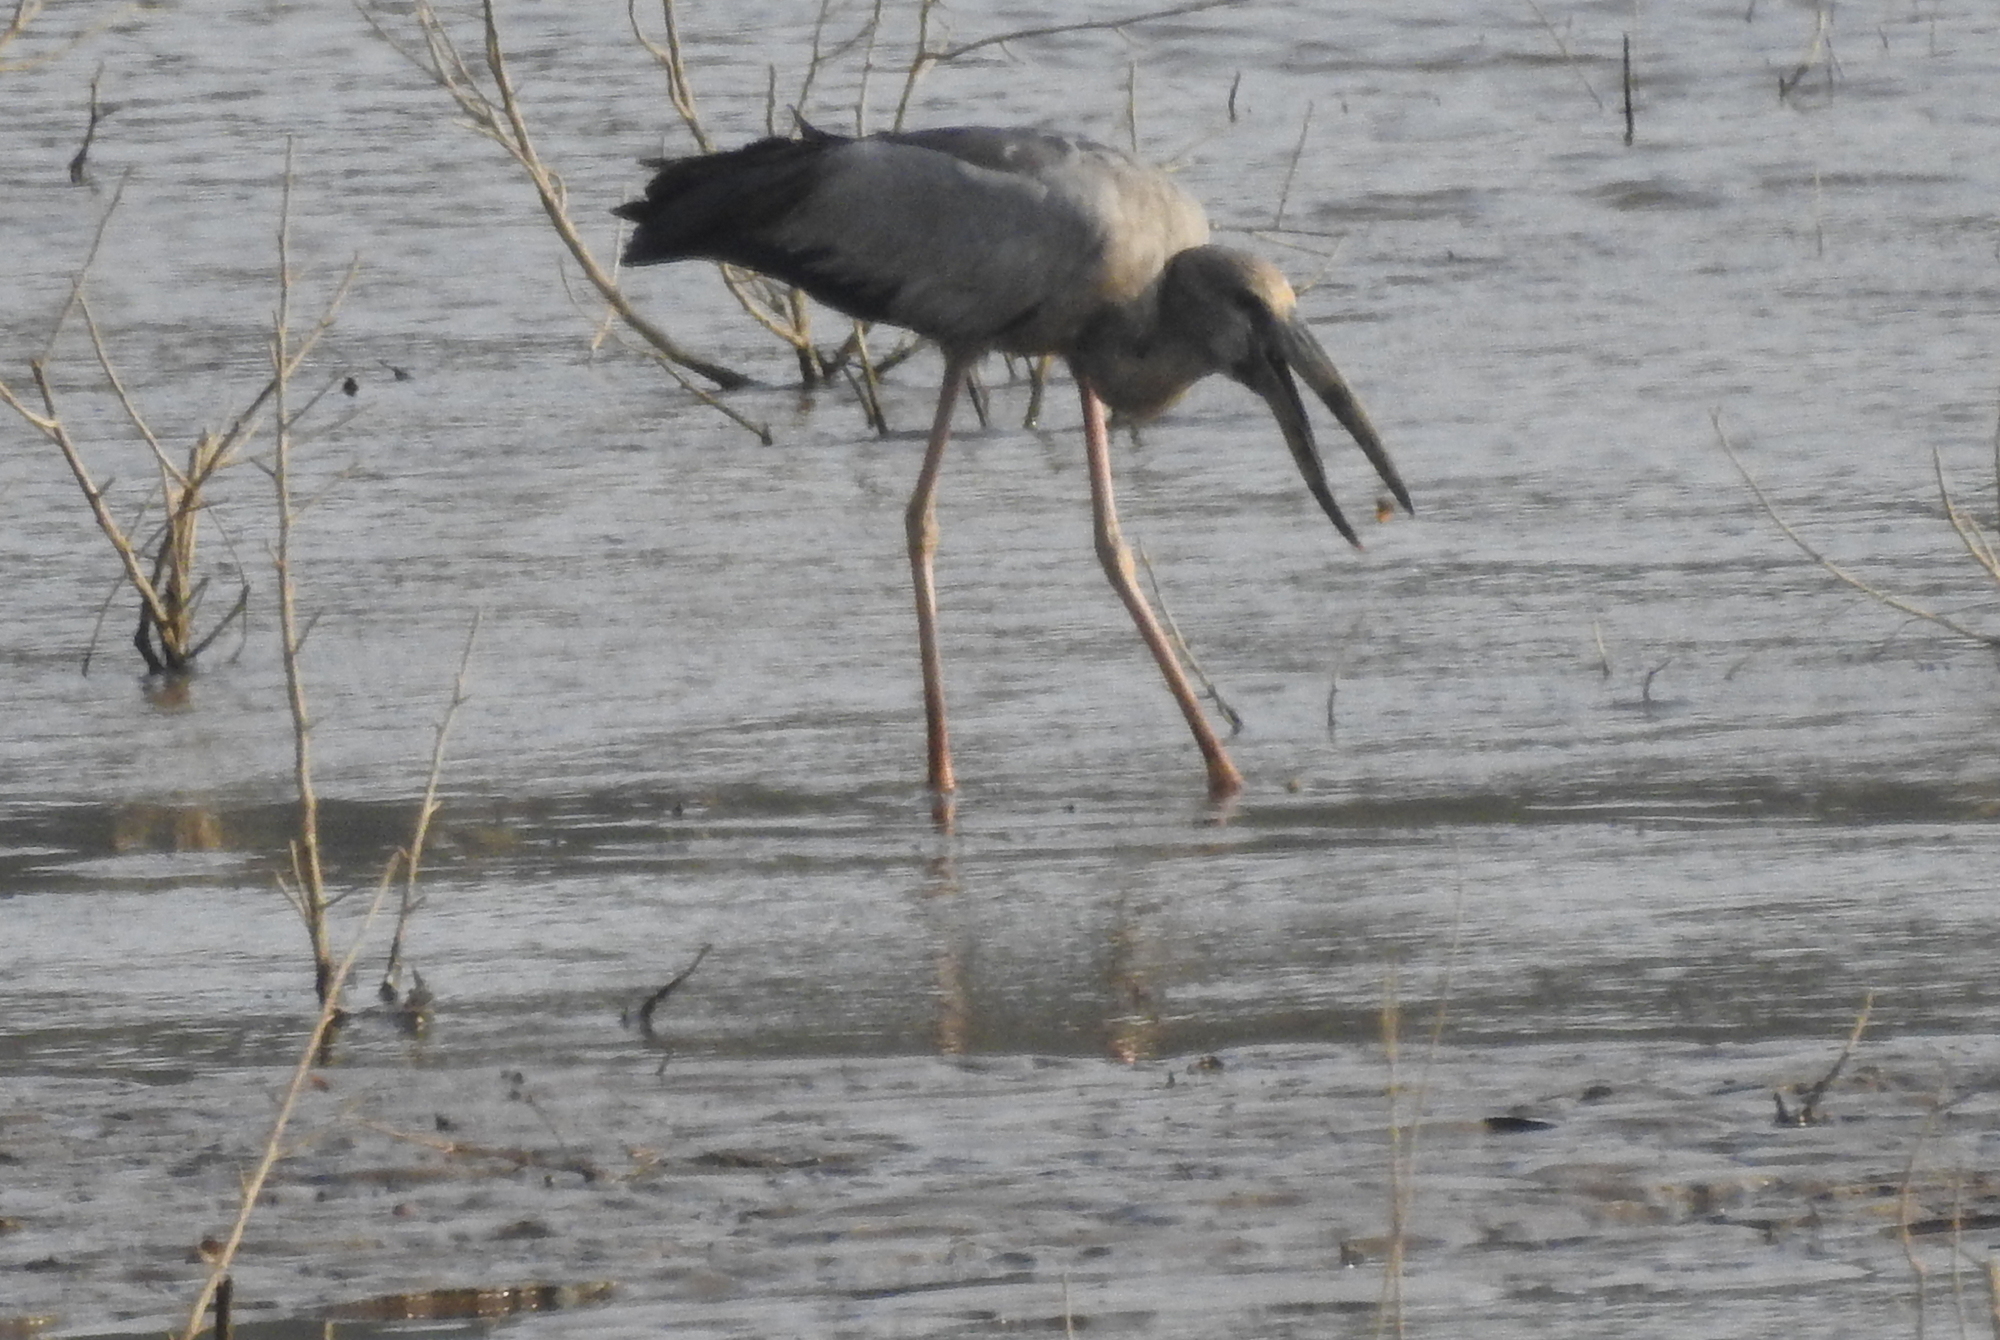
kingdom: Animalia
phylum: Chordata
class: Aves
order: Ciconiiformes
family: Ciconiidae
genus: Anastomus
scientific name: Anastomus oscitans
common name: Asian openbill
